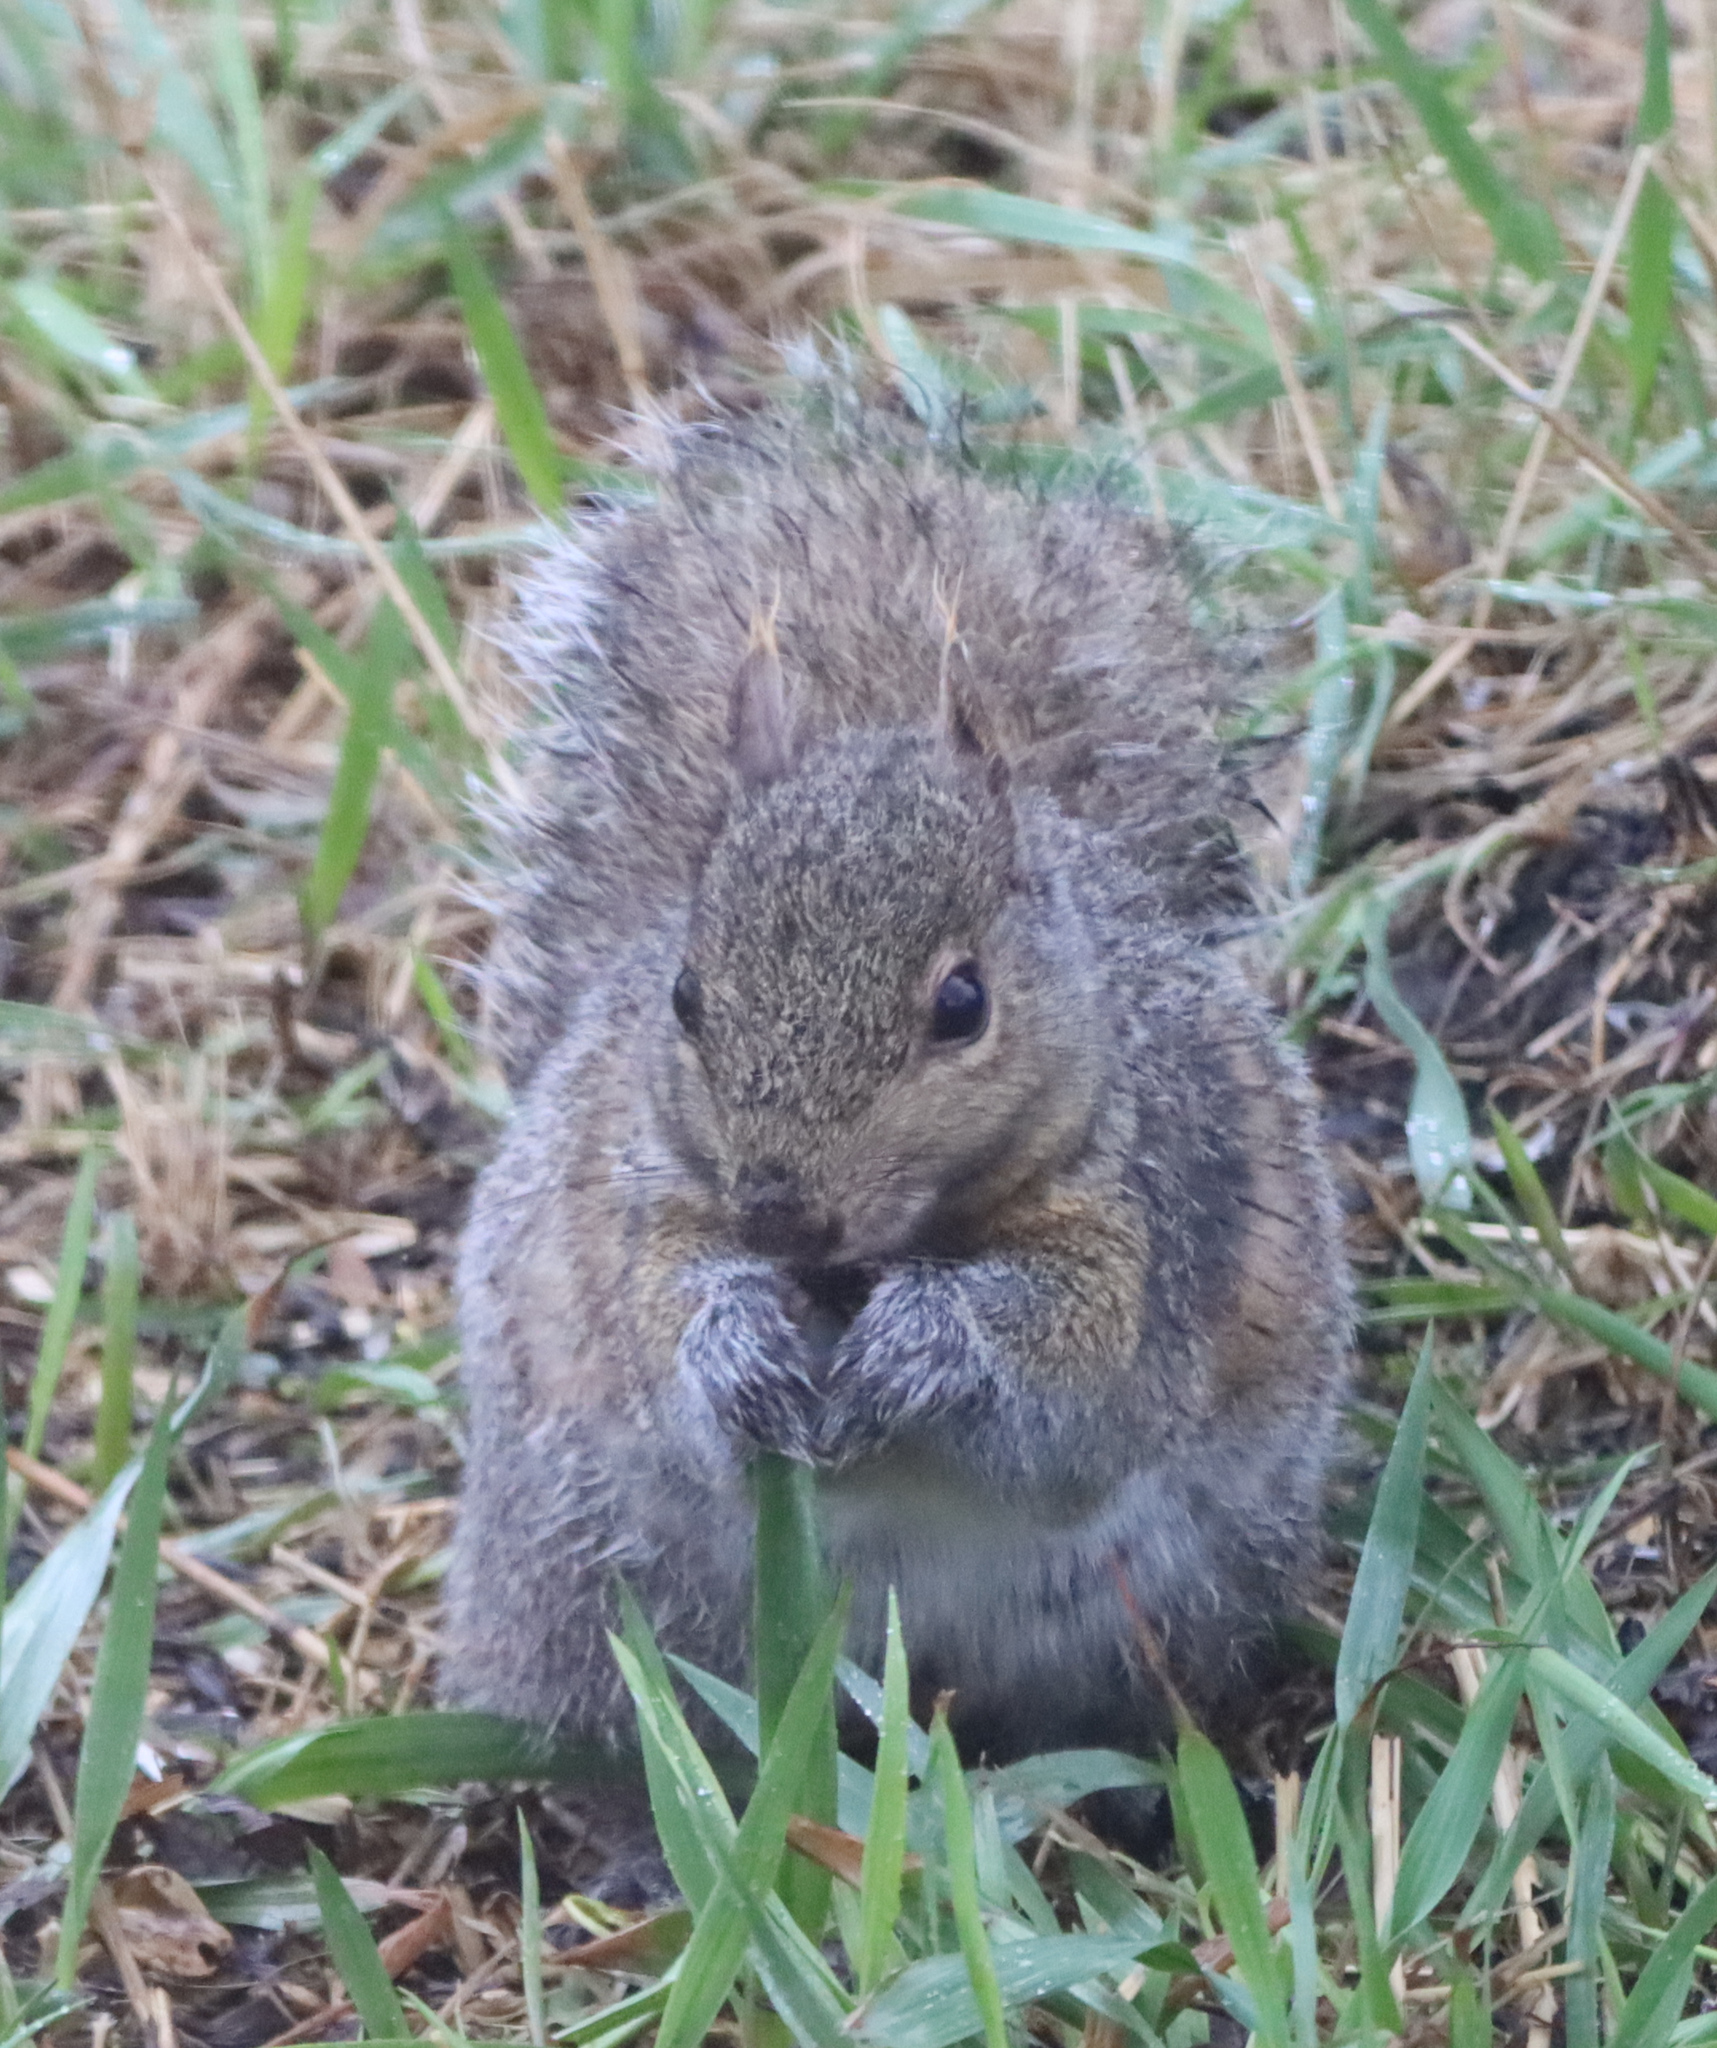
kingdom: Animalia
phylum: Chordata
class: Mammalia
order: Rodentia
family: Sciuridae
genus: Sciurus
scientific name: Sciurus carolinensis
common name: Eastern gray squirrel
